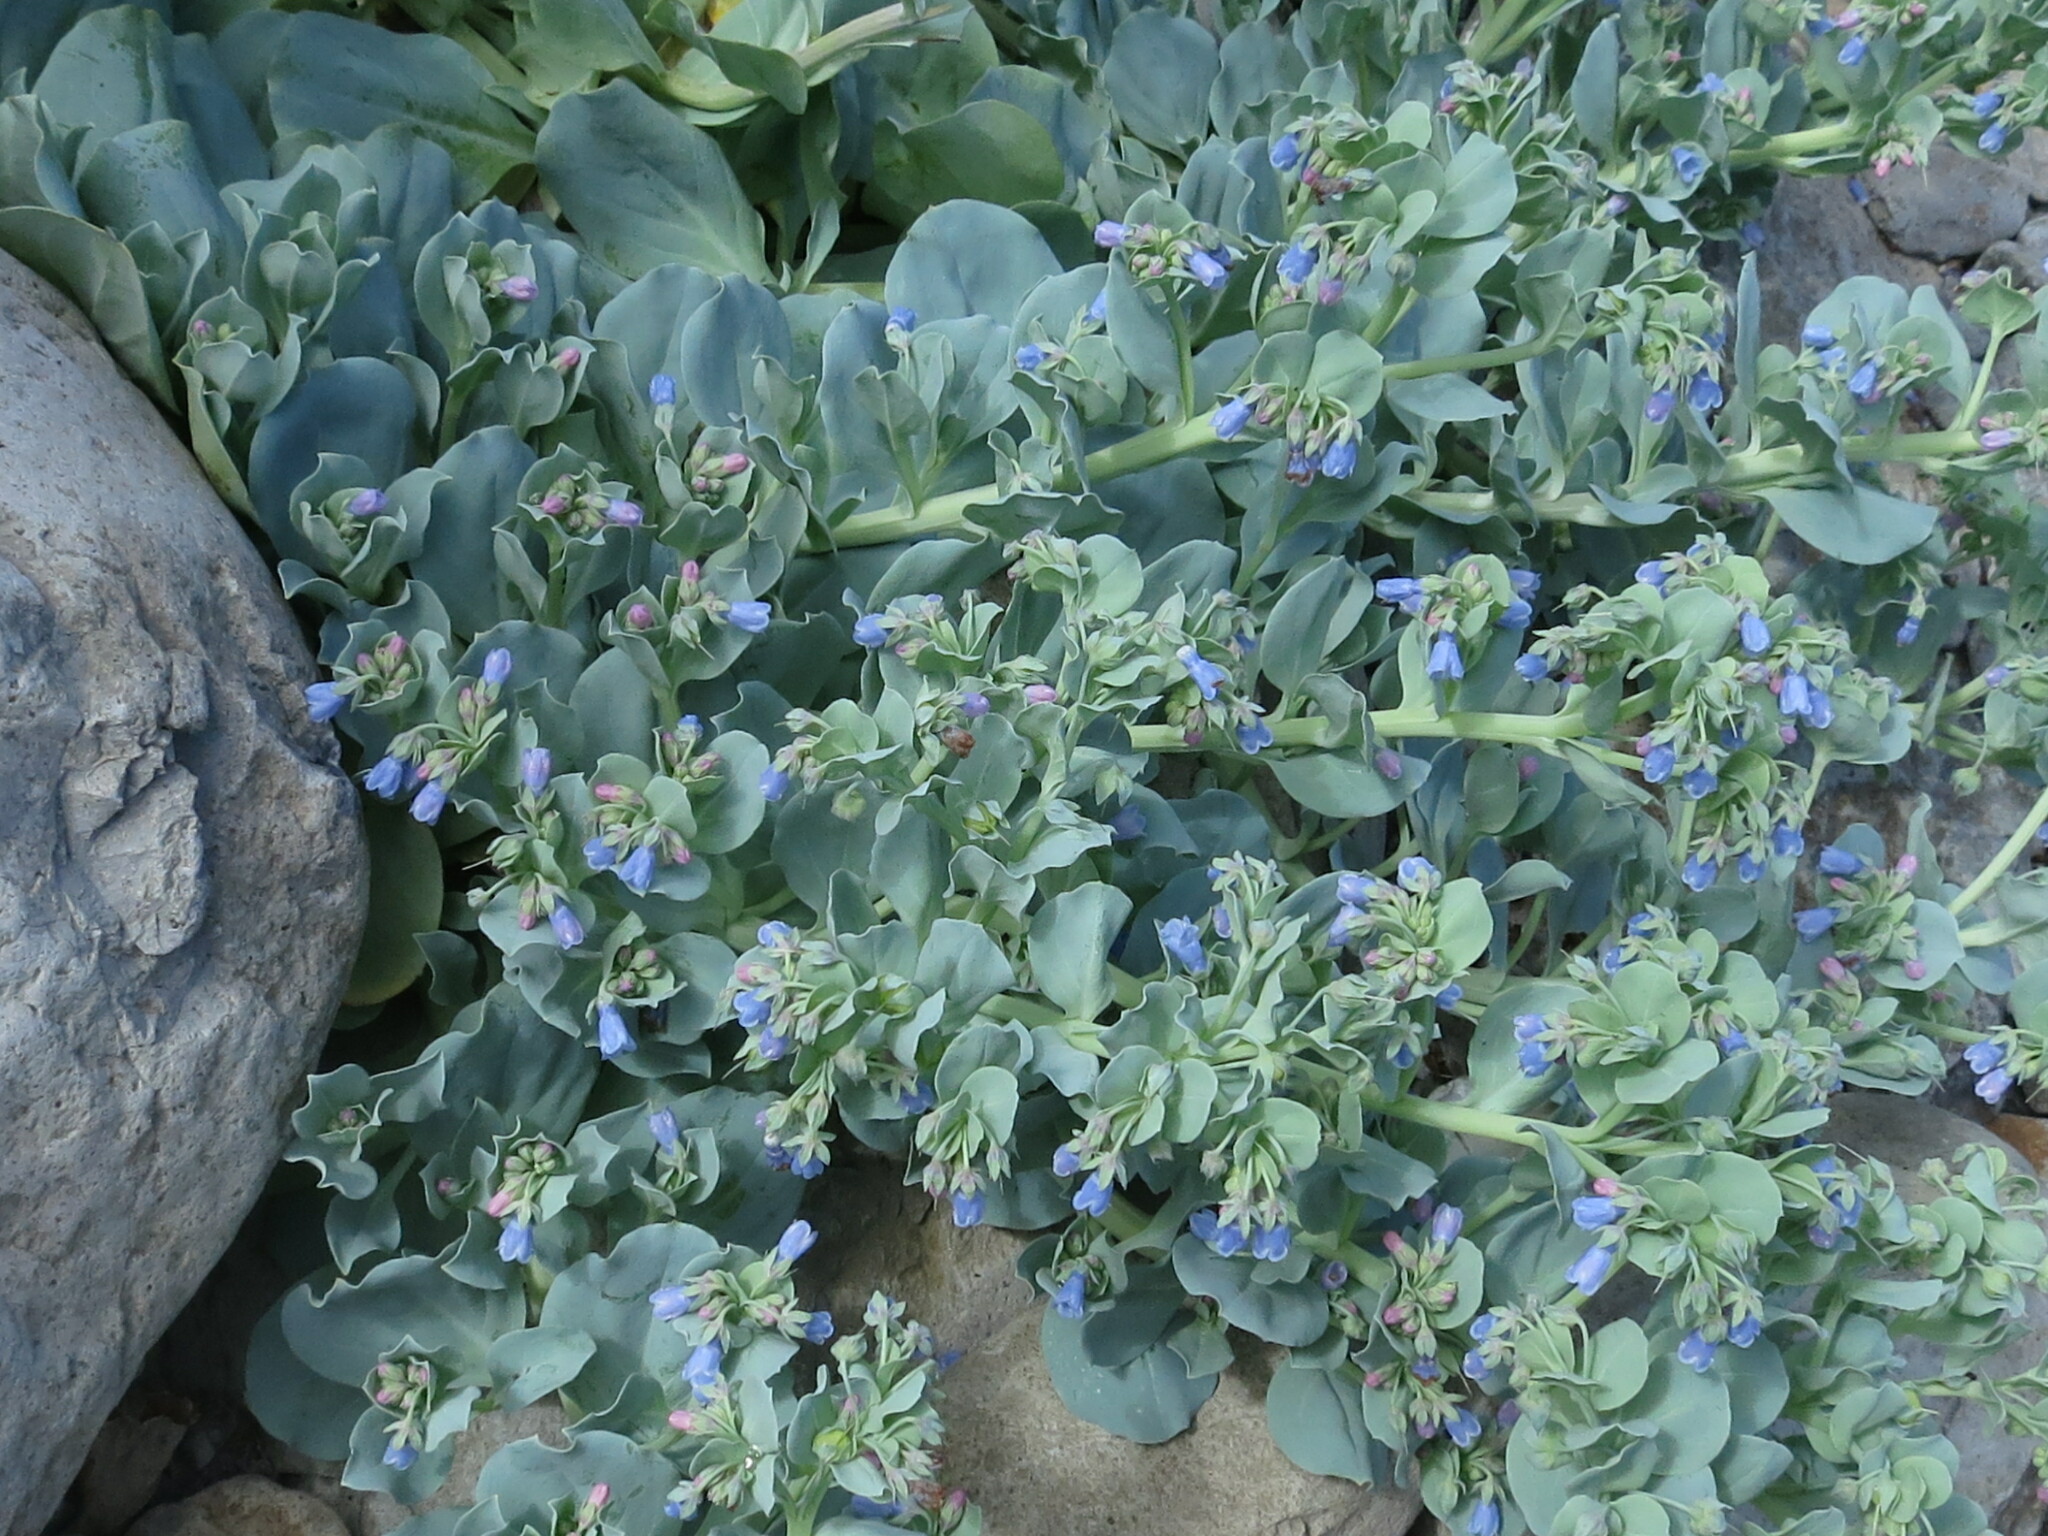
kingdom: Plantae
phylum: Tracheophyta
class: Magnoliopsida
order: Boraginales
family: Boraginaceae
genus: Mertensia
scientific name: Mertensia simplicissima
